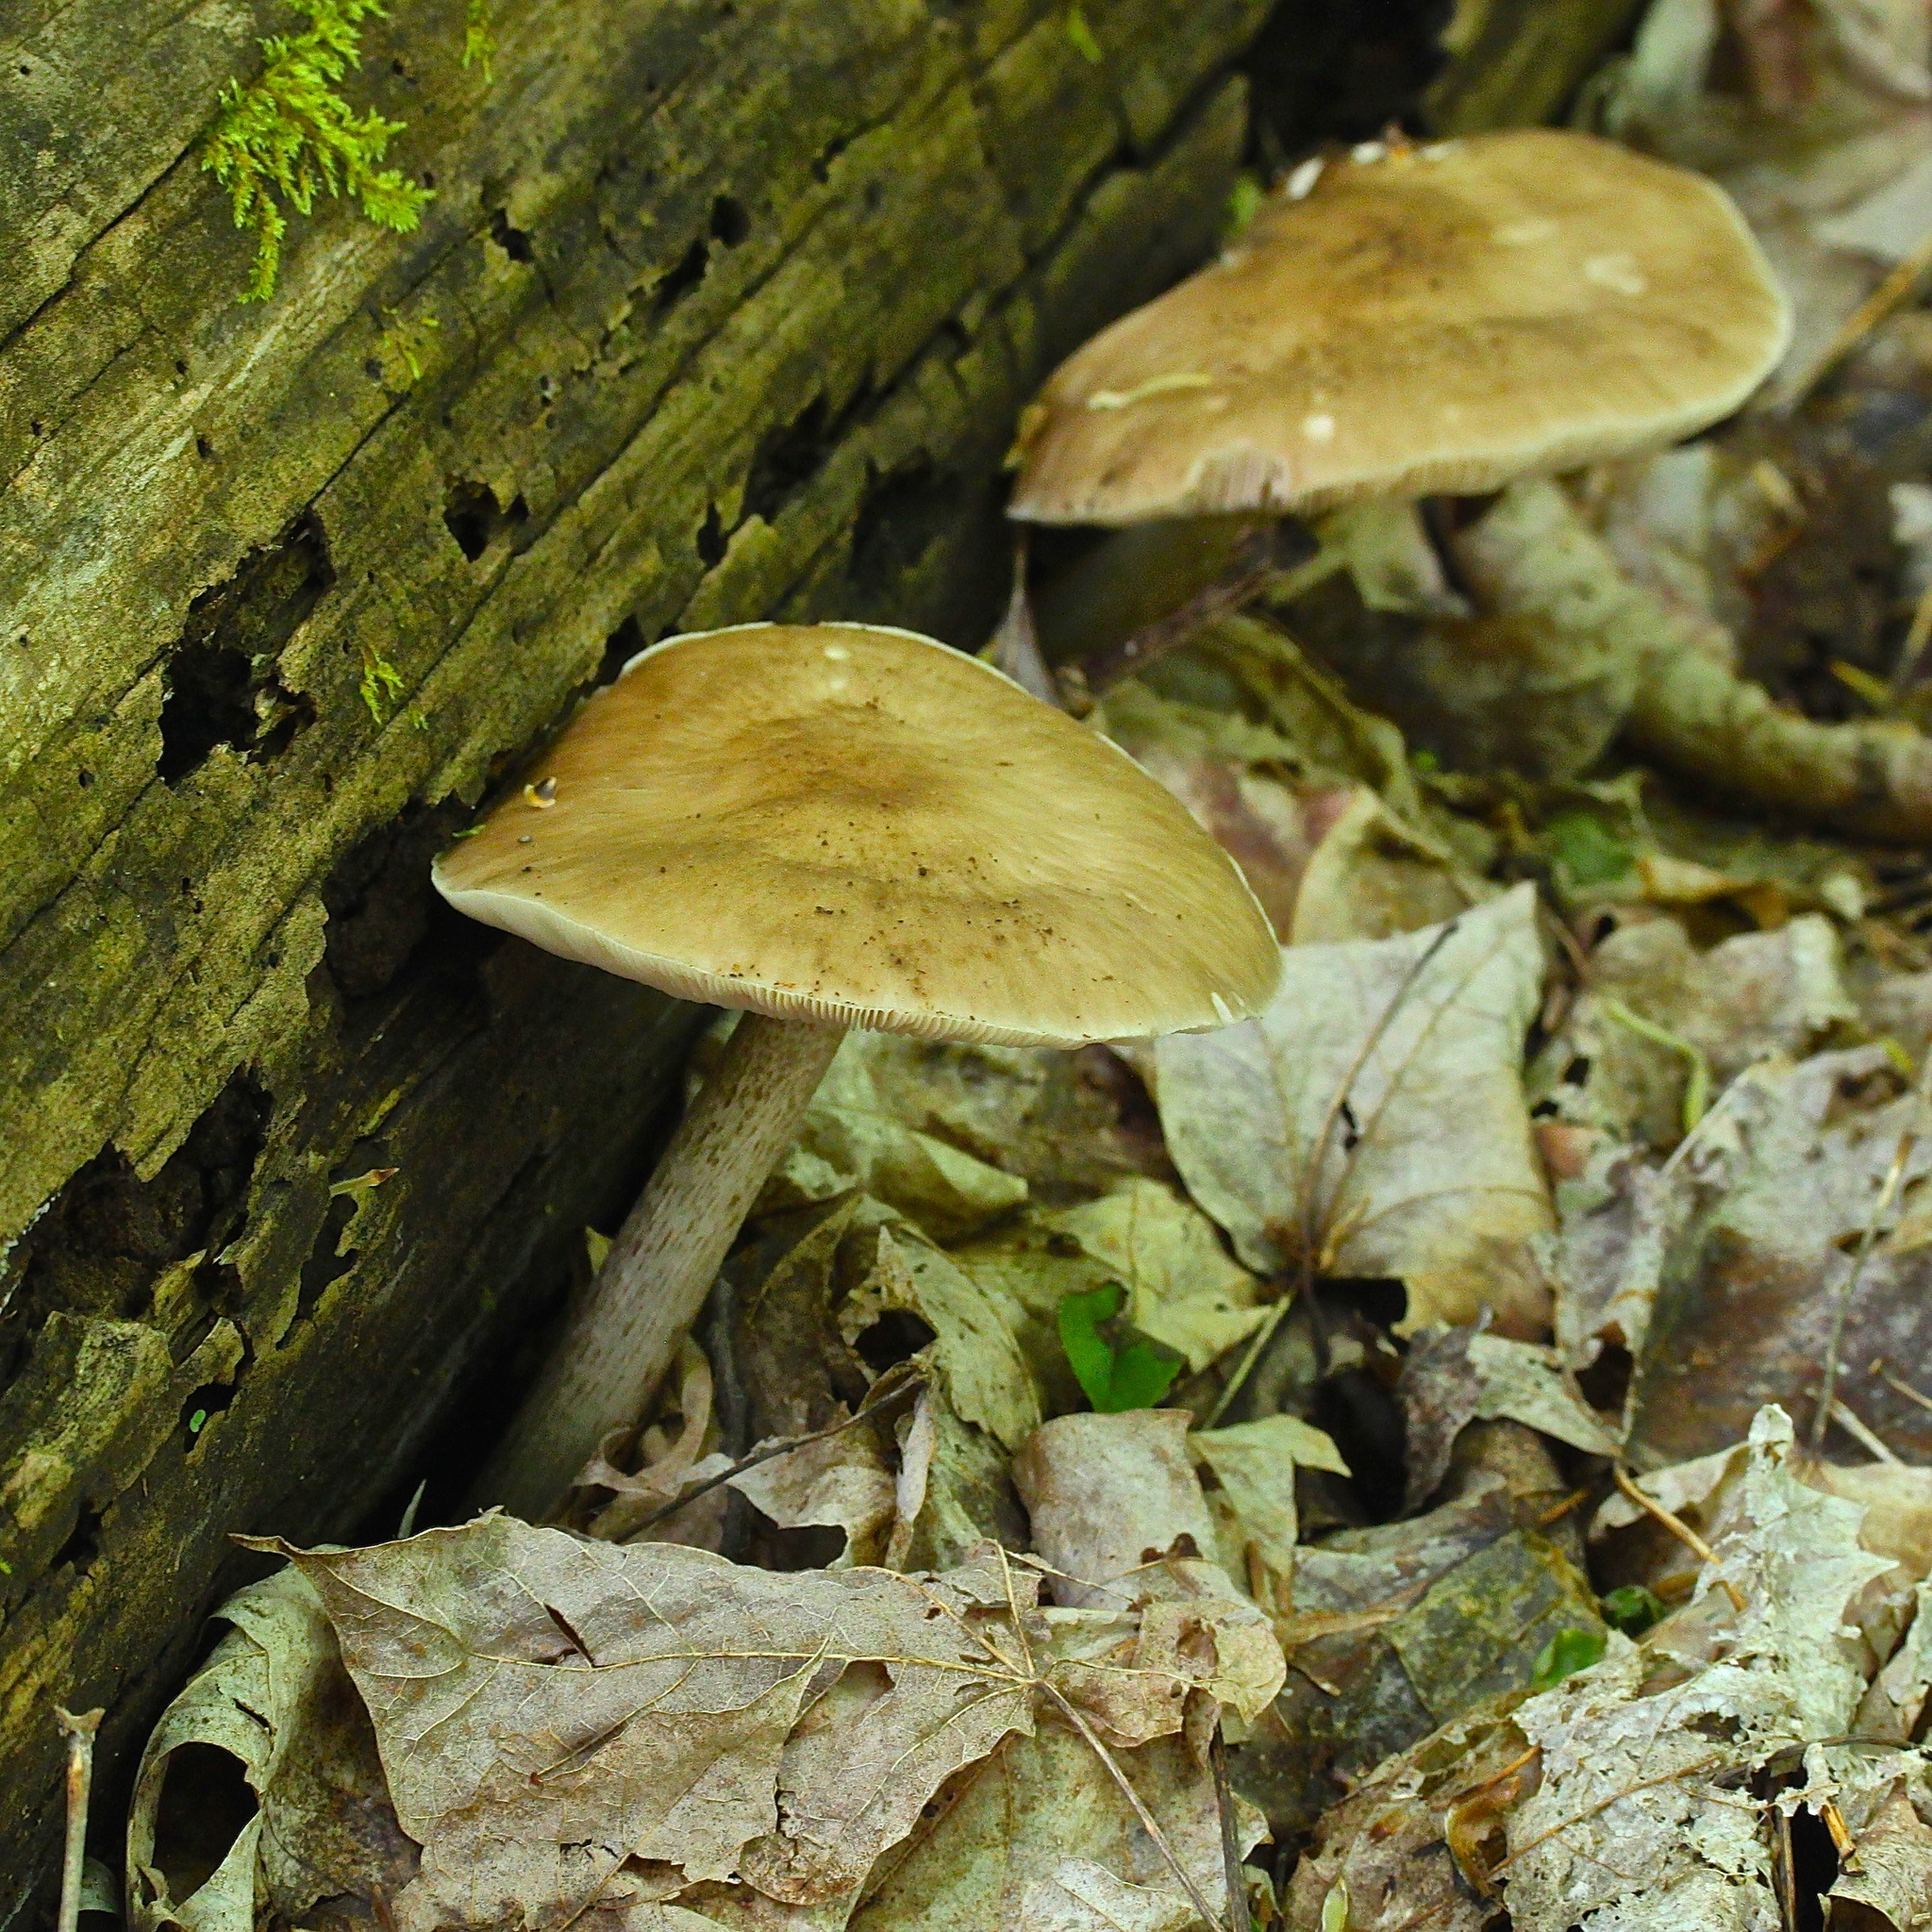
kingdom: Fungi
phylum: Basidiomycota
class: Agaricomycetes
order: Agaricales
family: Pluteaceae
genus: Pluteus
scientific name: Pluteus cervinus
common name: Deer shield
